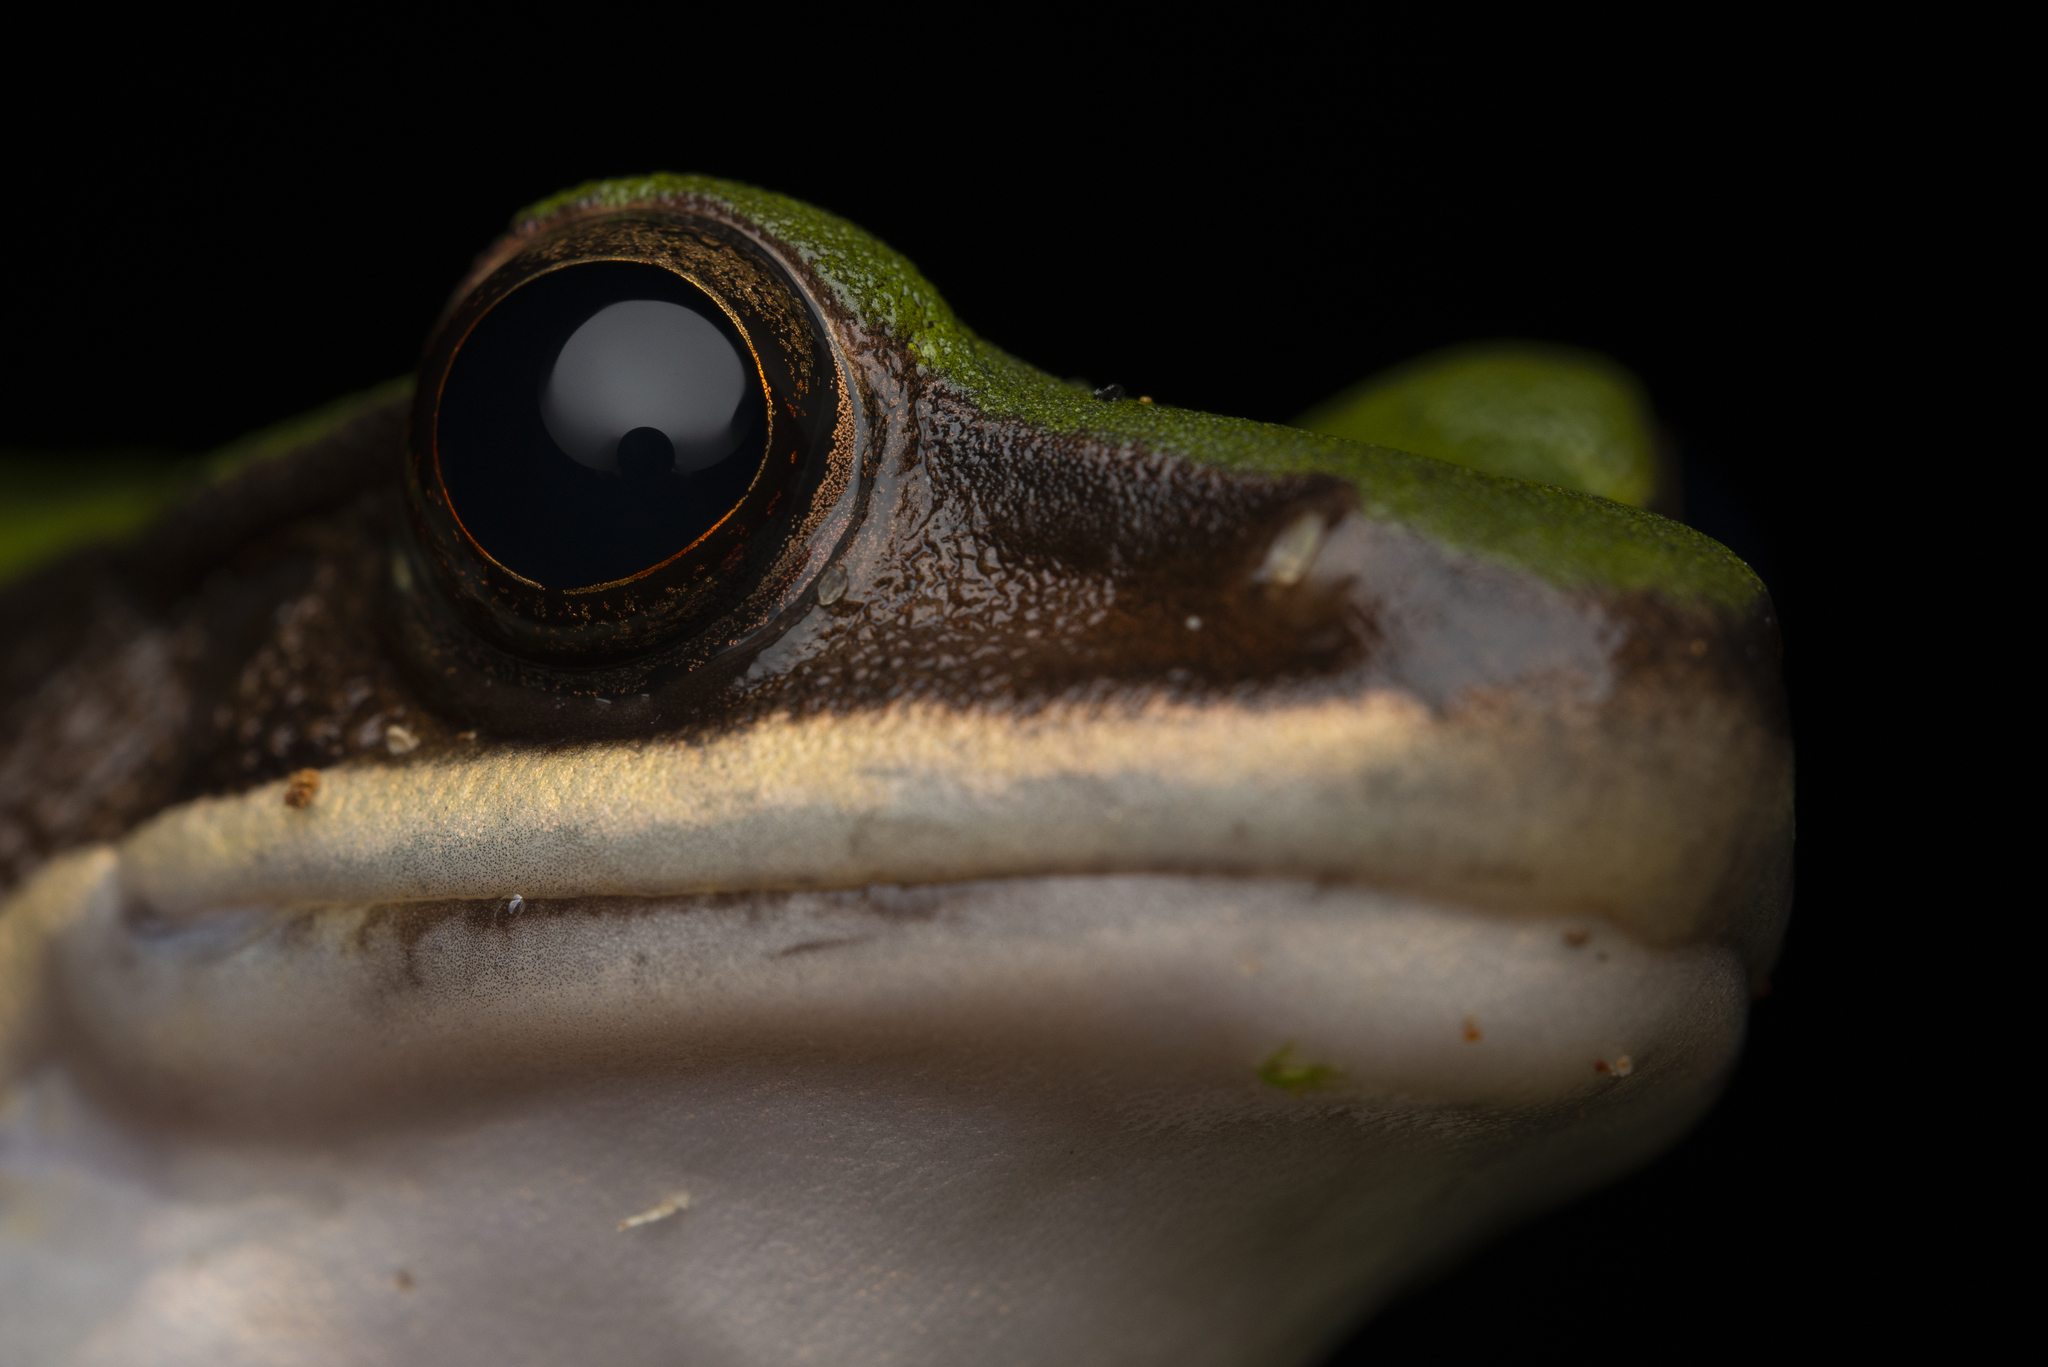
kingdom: Animalia
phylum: Chordata
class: Amphibia
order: Anura
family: Ranidae
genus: Odorrana
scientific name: Odorrana graminea
